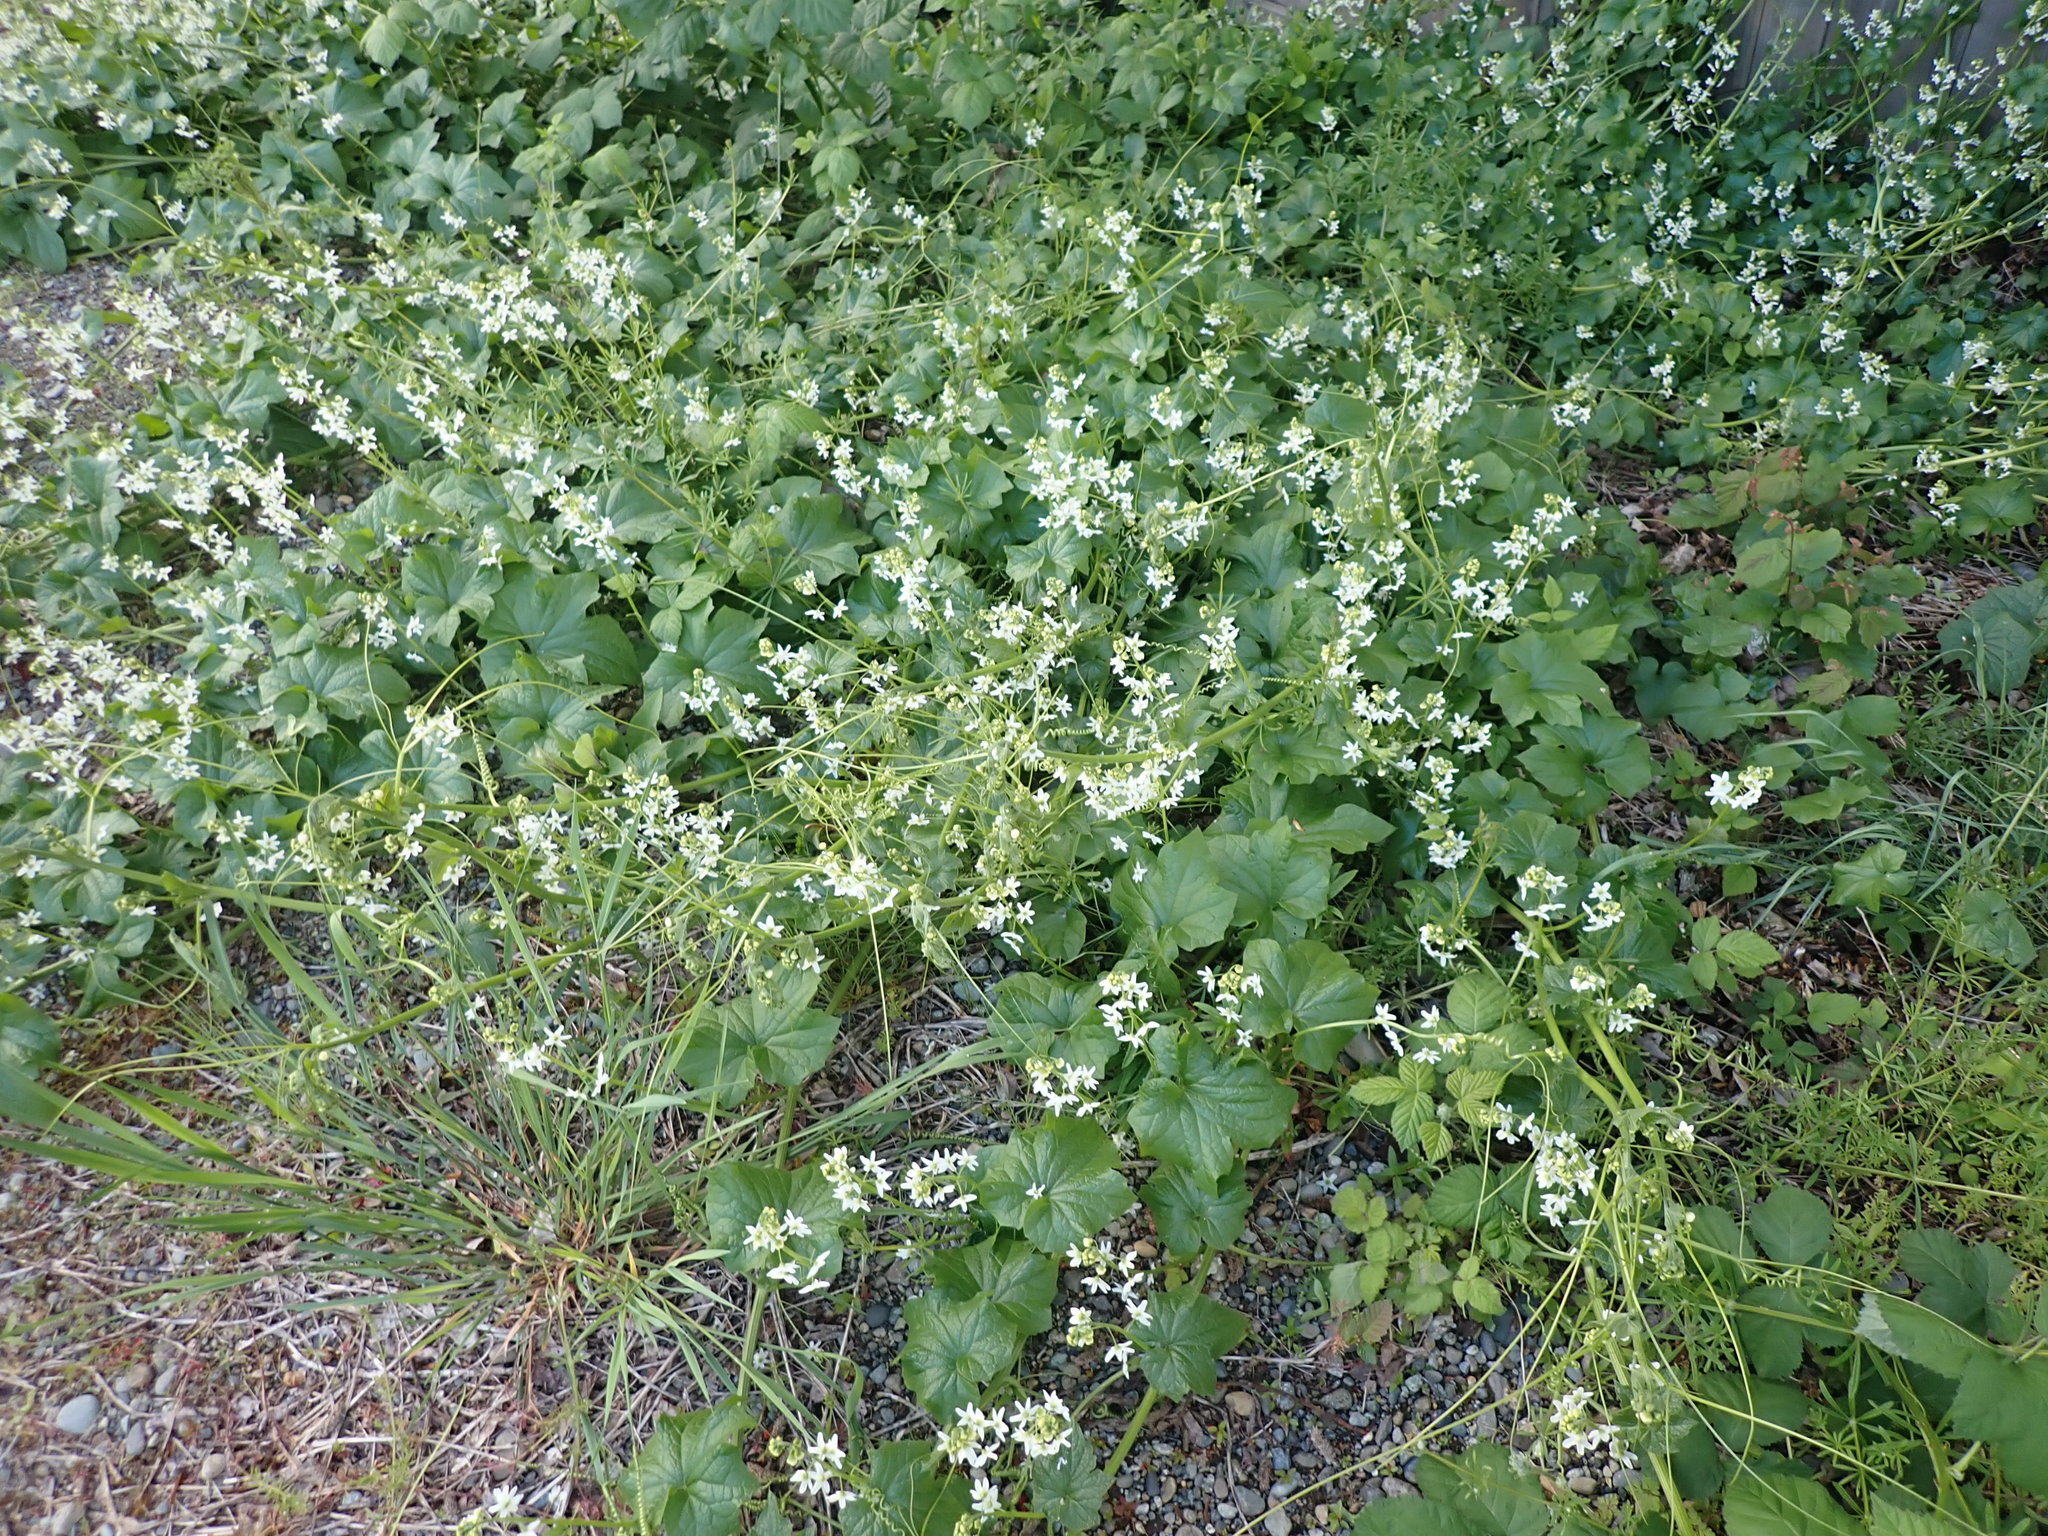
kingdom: Plantae
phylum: Tracheophyta
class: Magnoliopsida
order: Cucurbitales
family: Cucurbitaceae
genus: Marah
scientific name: Marah oregana
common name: Coastal manroot
